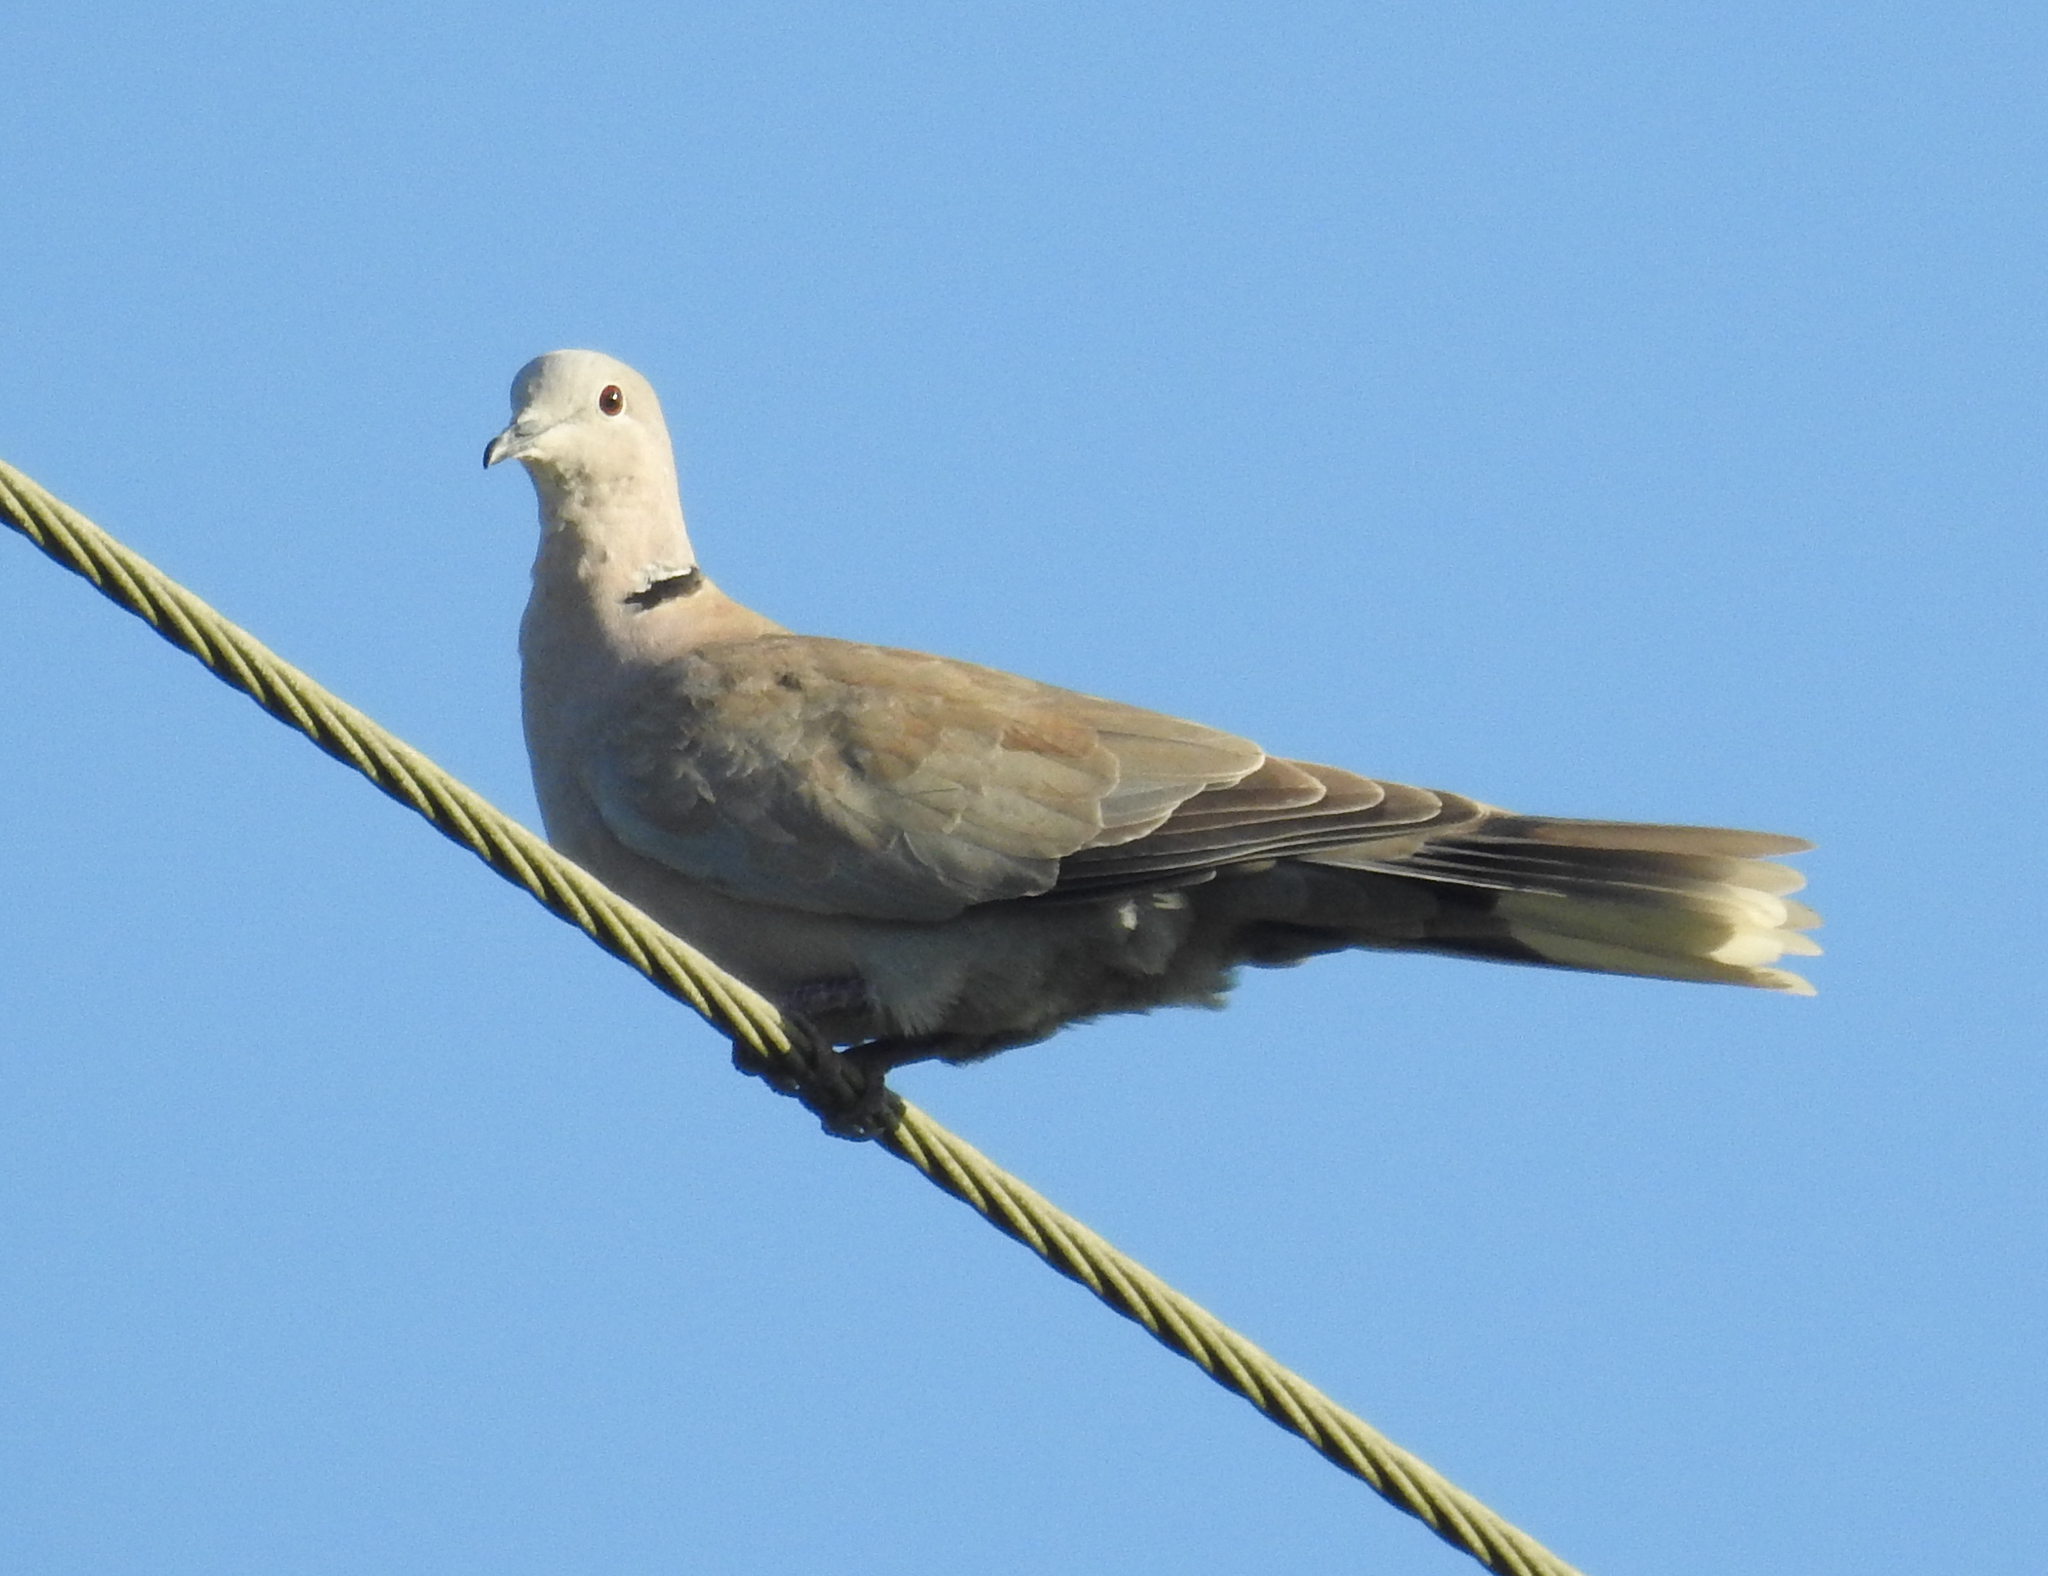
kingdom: Animalia
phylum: Chordata
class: Aves
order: Columbiformes
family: Columbidae
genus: Streptopelia
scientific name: Streptopelia decaocto
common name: Eurasian collared dove
